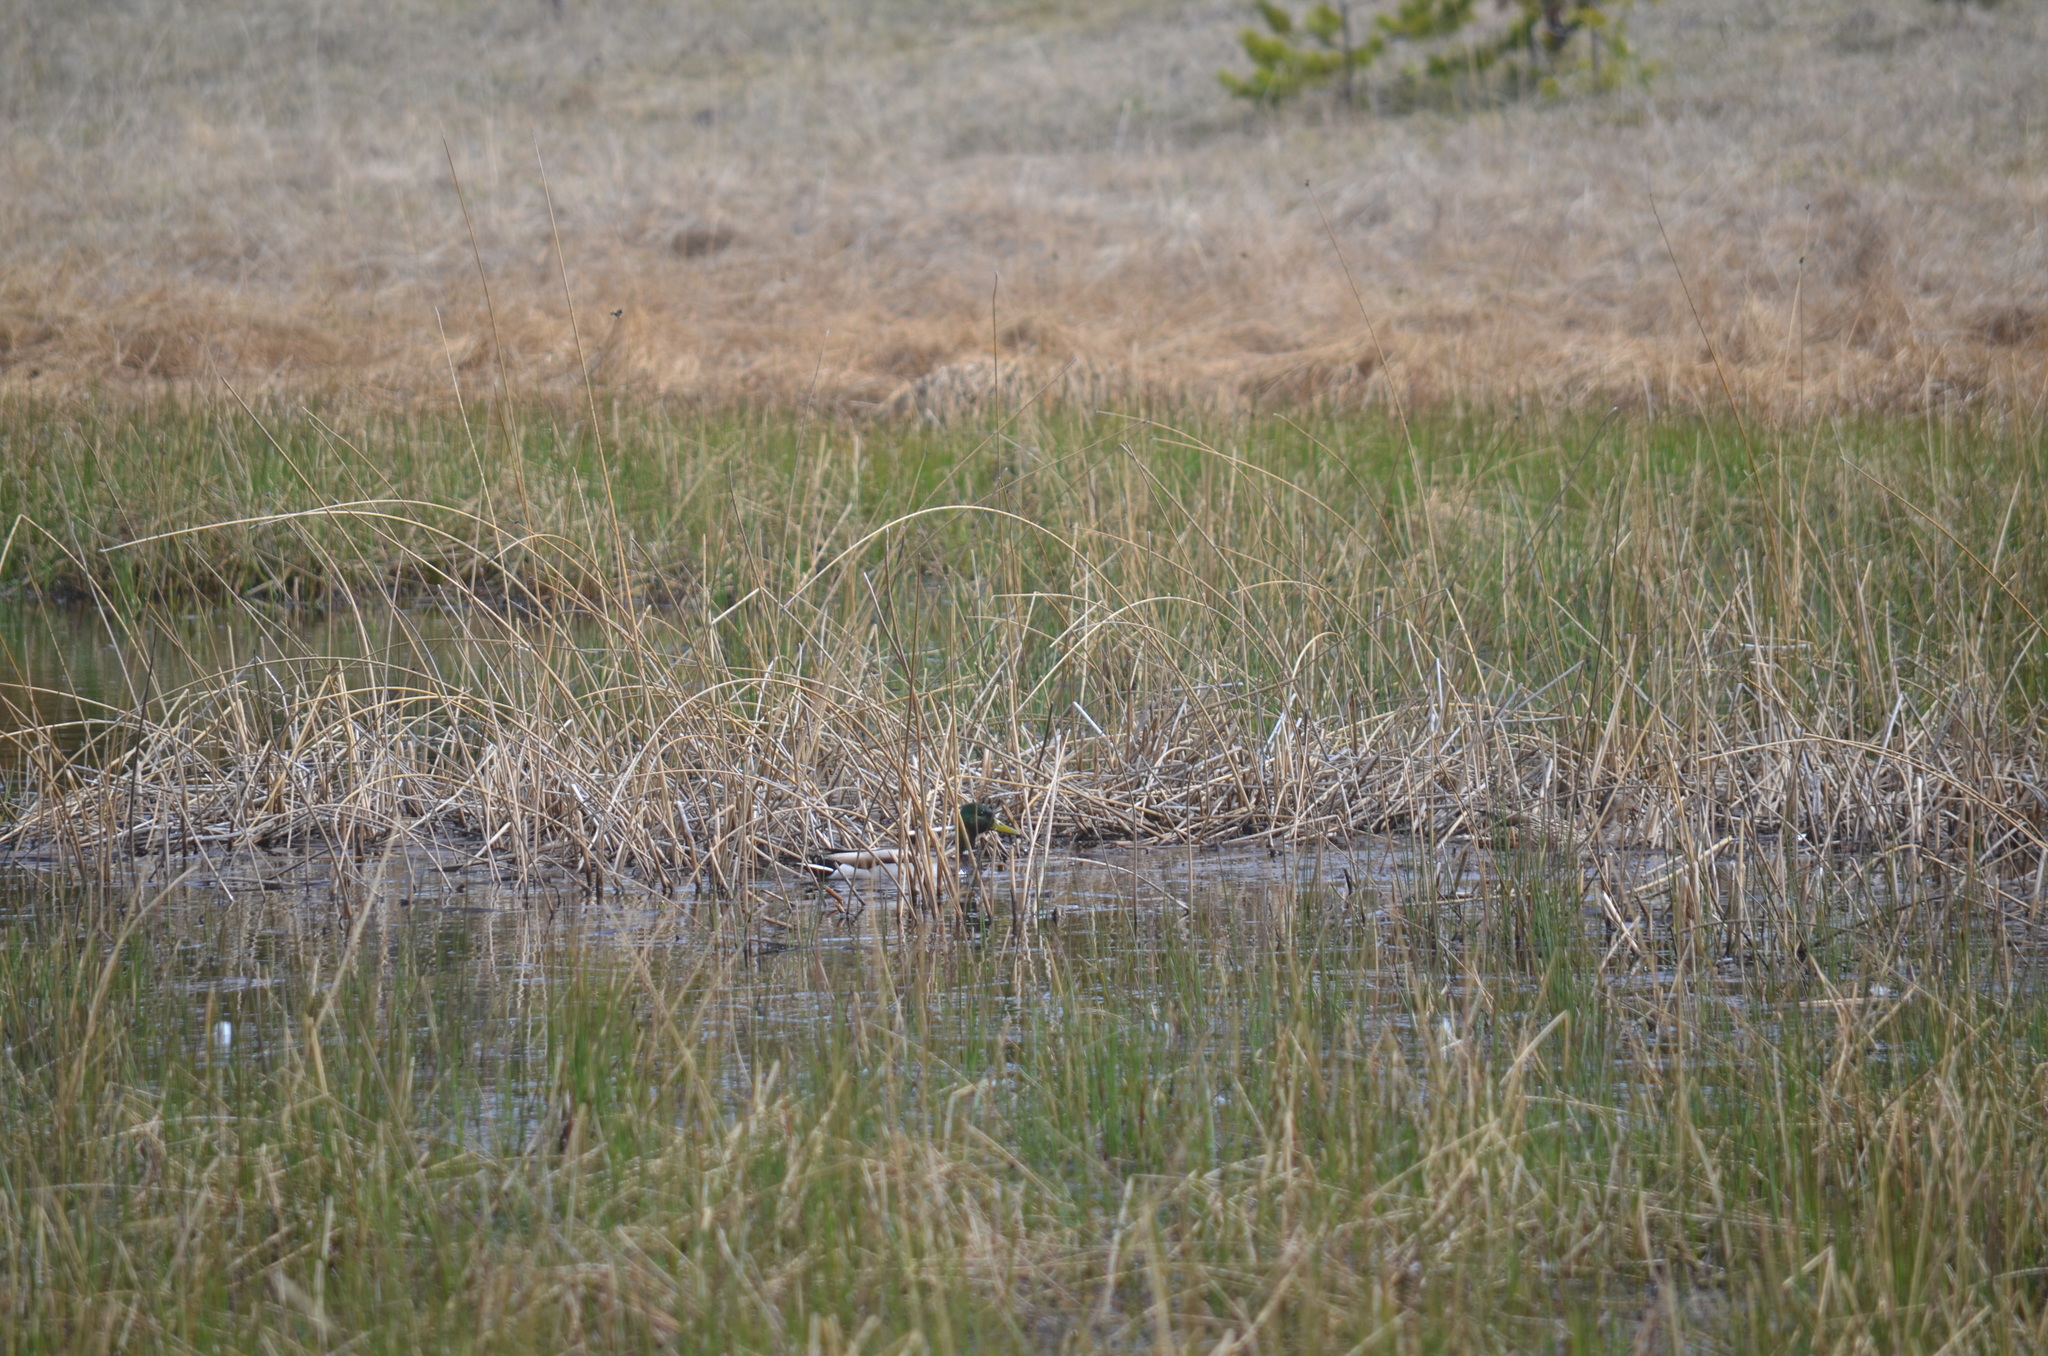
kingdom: Animalia
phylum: Chordata
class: Aves
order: Anseriformes
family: Anatidae
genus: Anas
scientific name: Anas platyrhynchos
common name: Mallard
